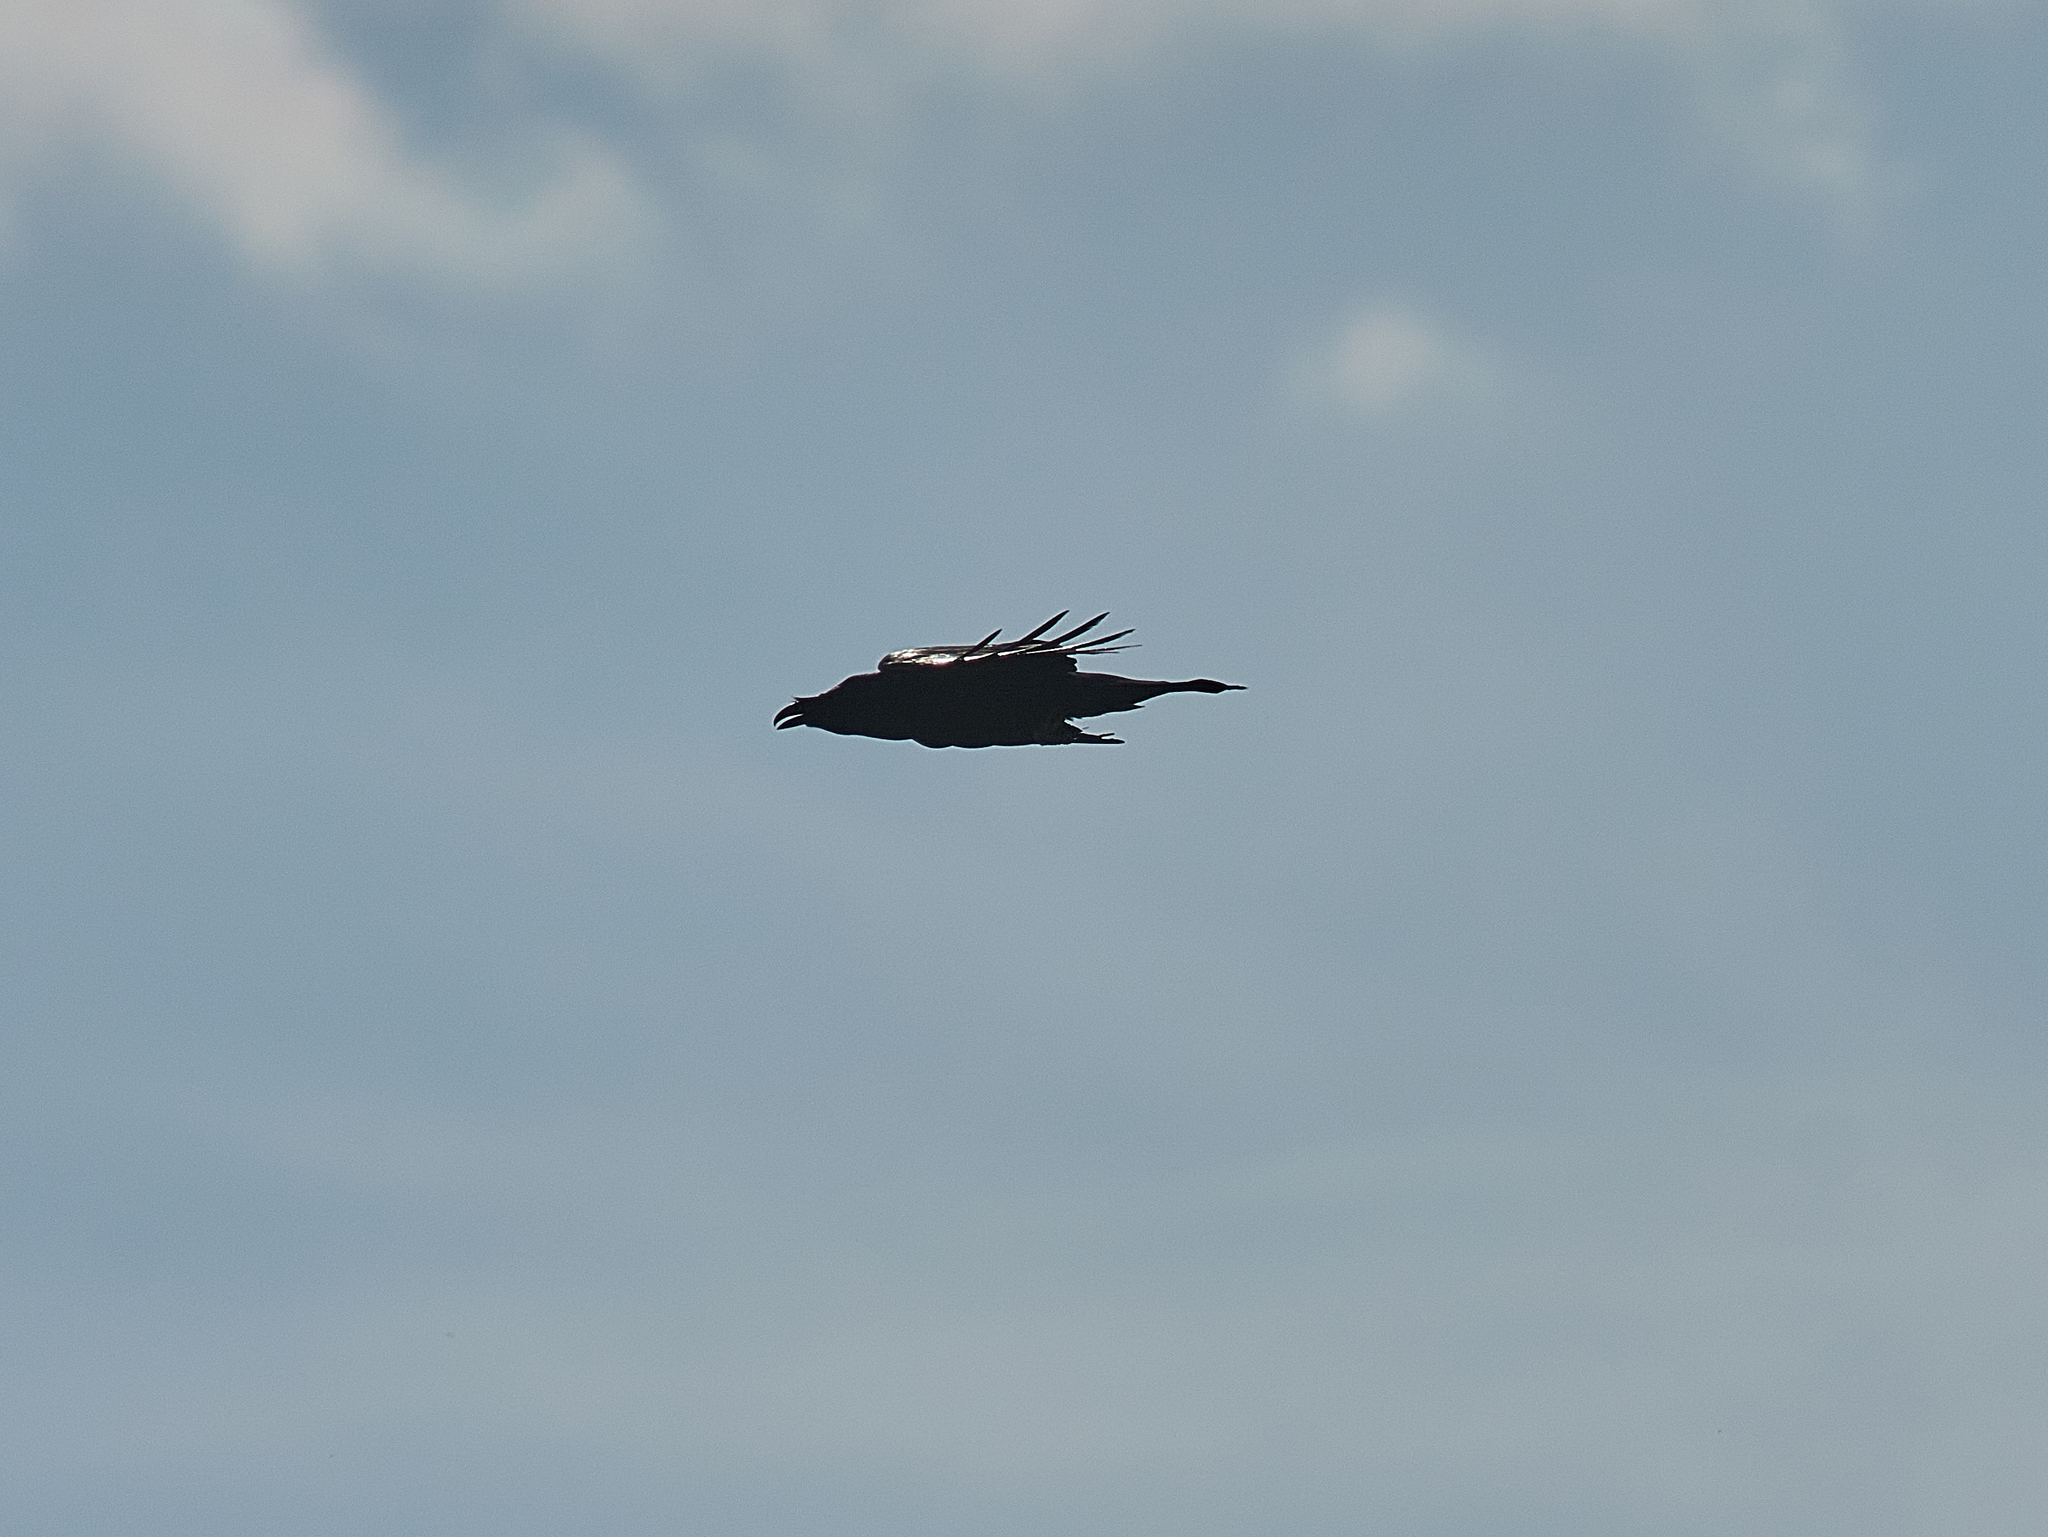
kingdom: Animalia
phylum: Chordata
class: Aves
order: Passeriformes
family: Corvidae
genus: Corvus
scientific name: Corvus corax
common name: Common raven
